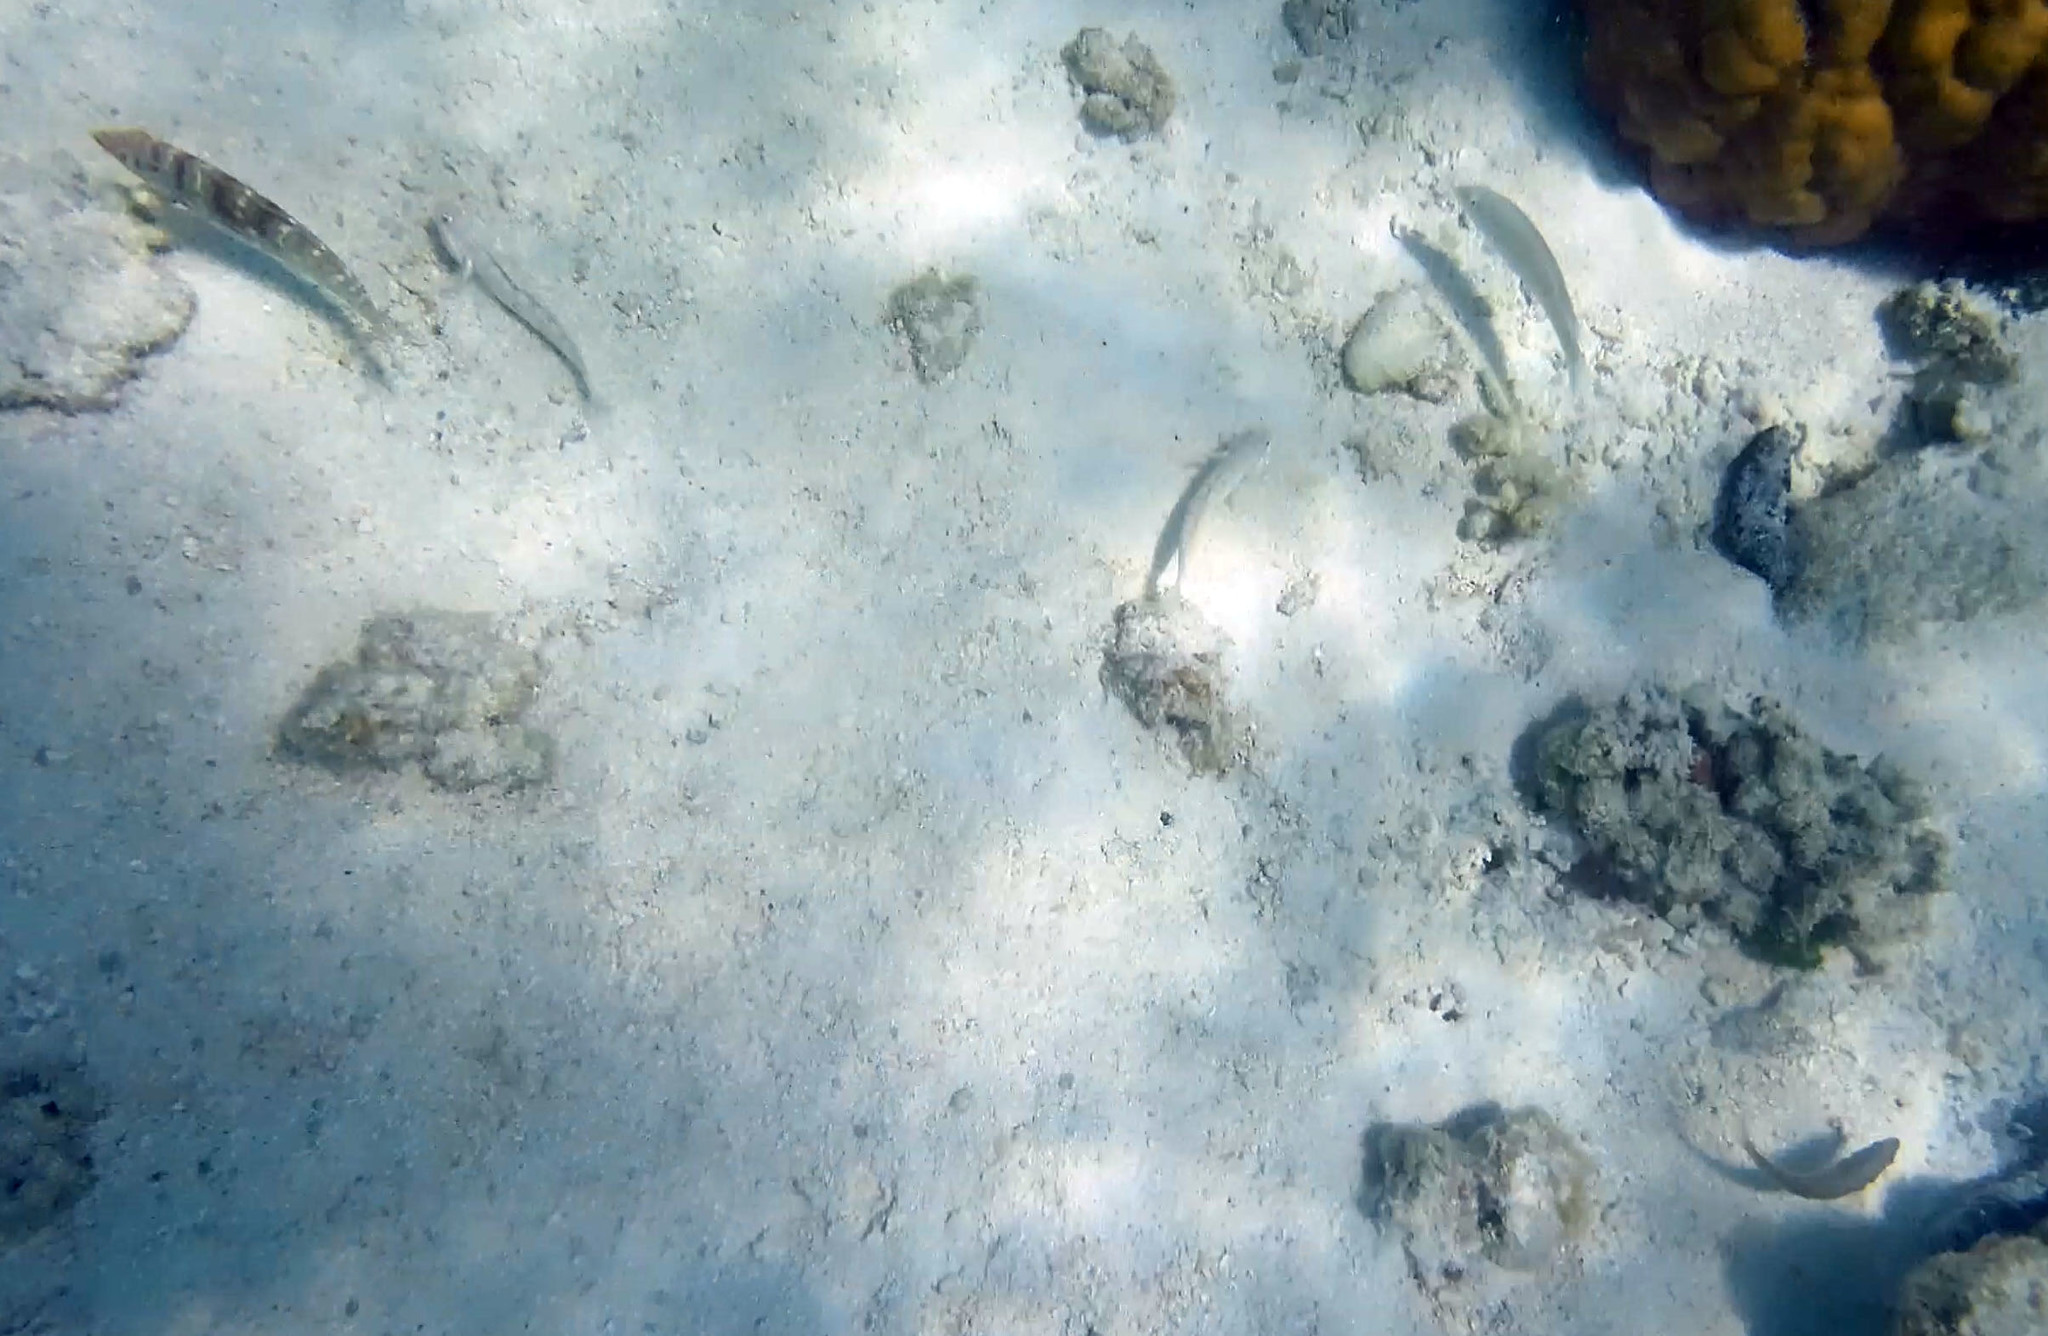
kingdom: Animalia
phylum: Chordata
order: Perciformes
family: Labridae
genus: Coris
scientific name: Coris batuensis
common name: Batu coris
